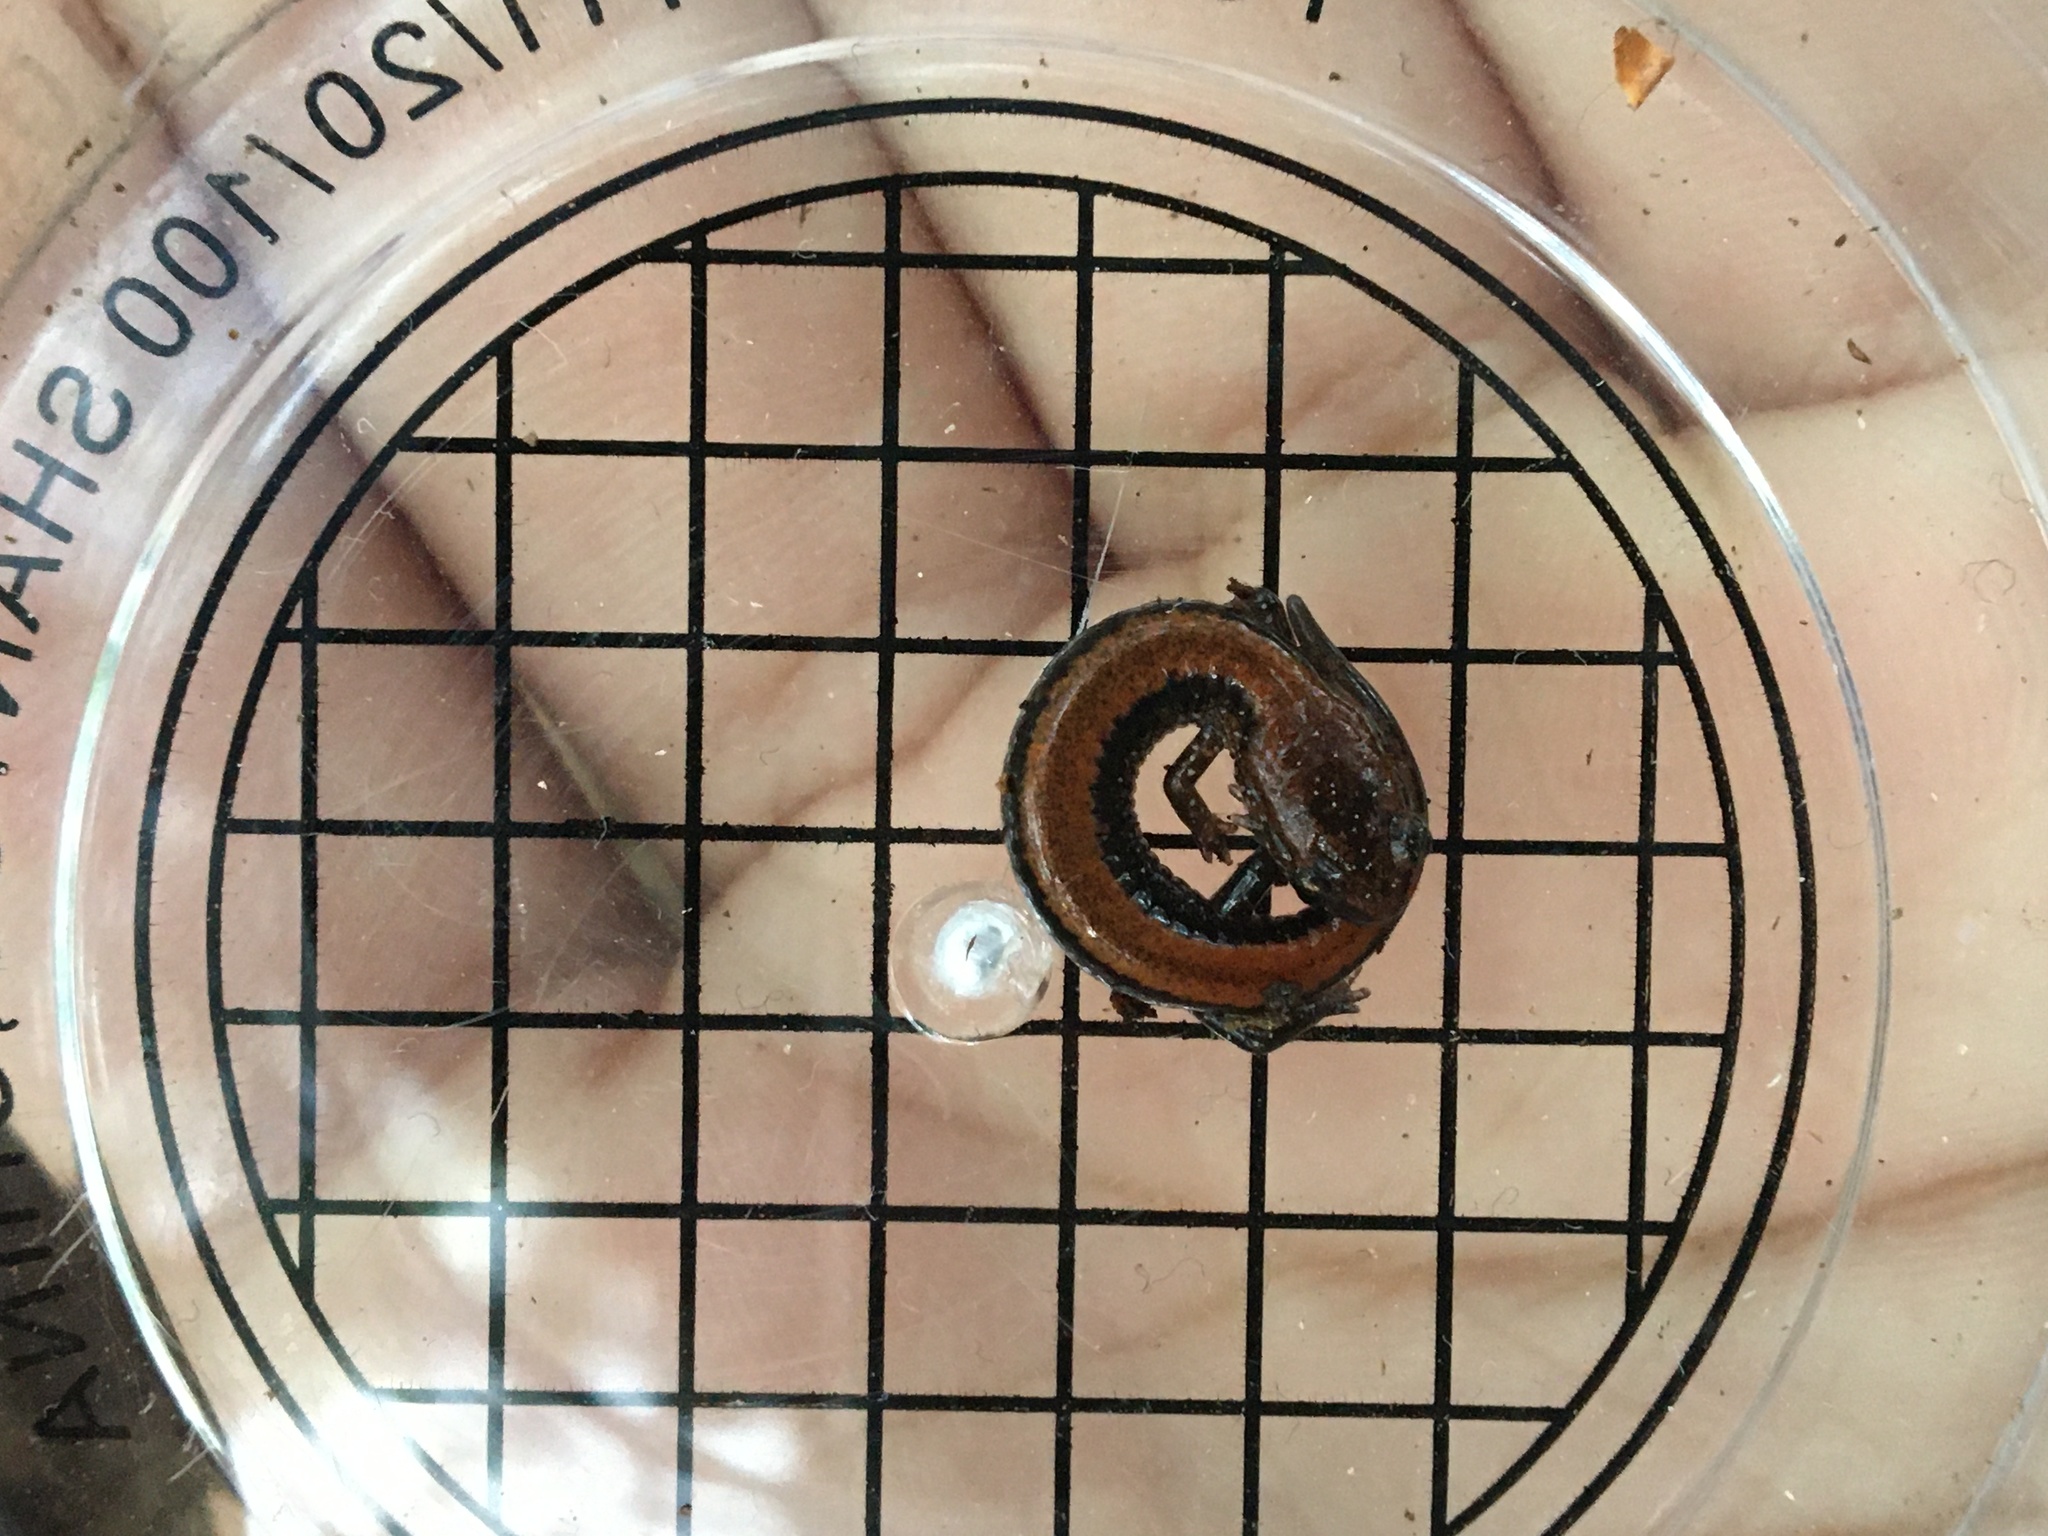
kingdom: Animalia
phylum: Chordata
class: Amphibia
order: Caudata
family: Plethodontidae
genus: Plethodon
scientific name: Plethodon cinereus
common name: Redback salamander
